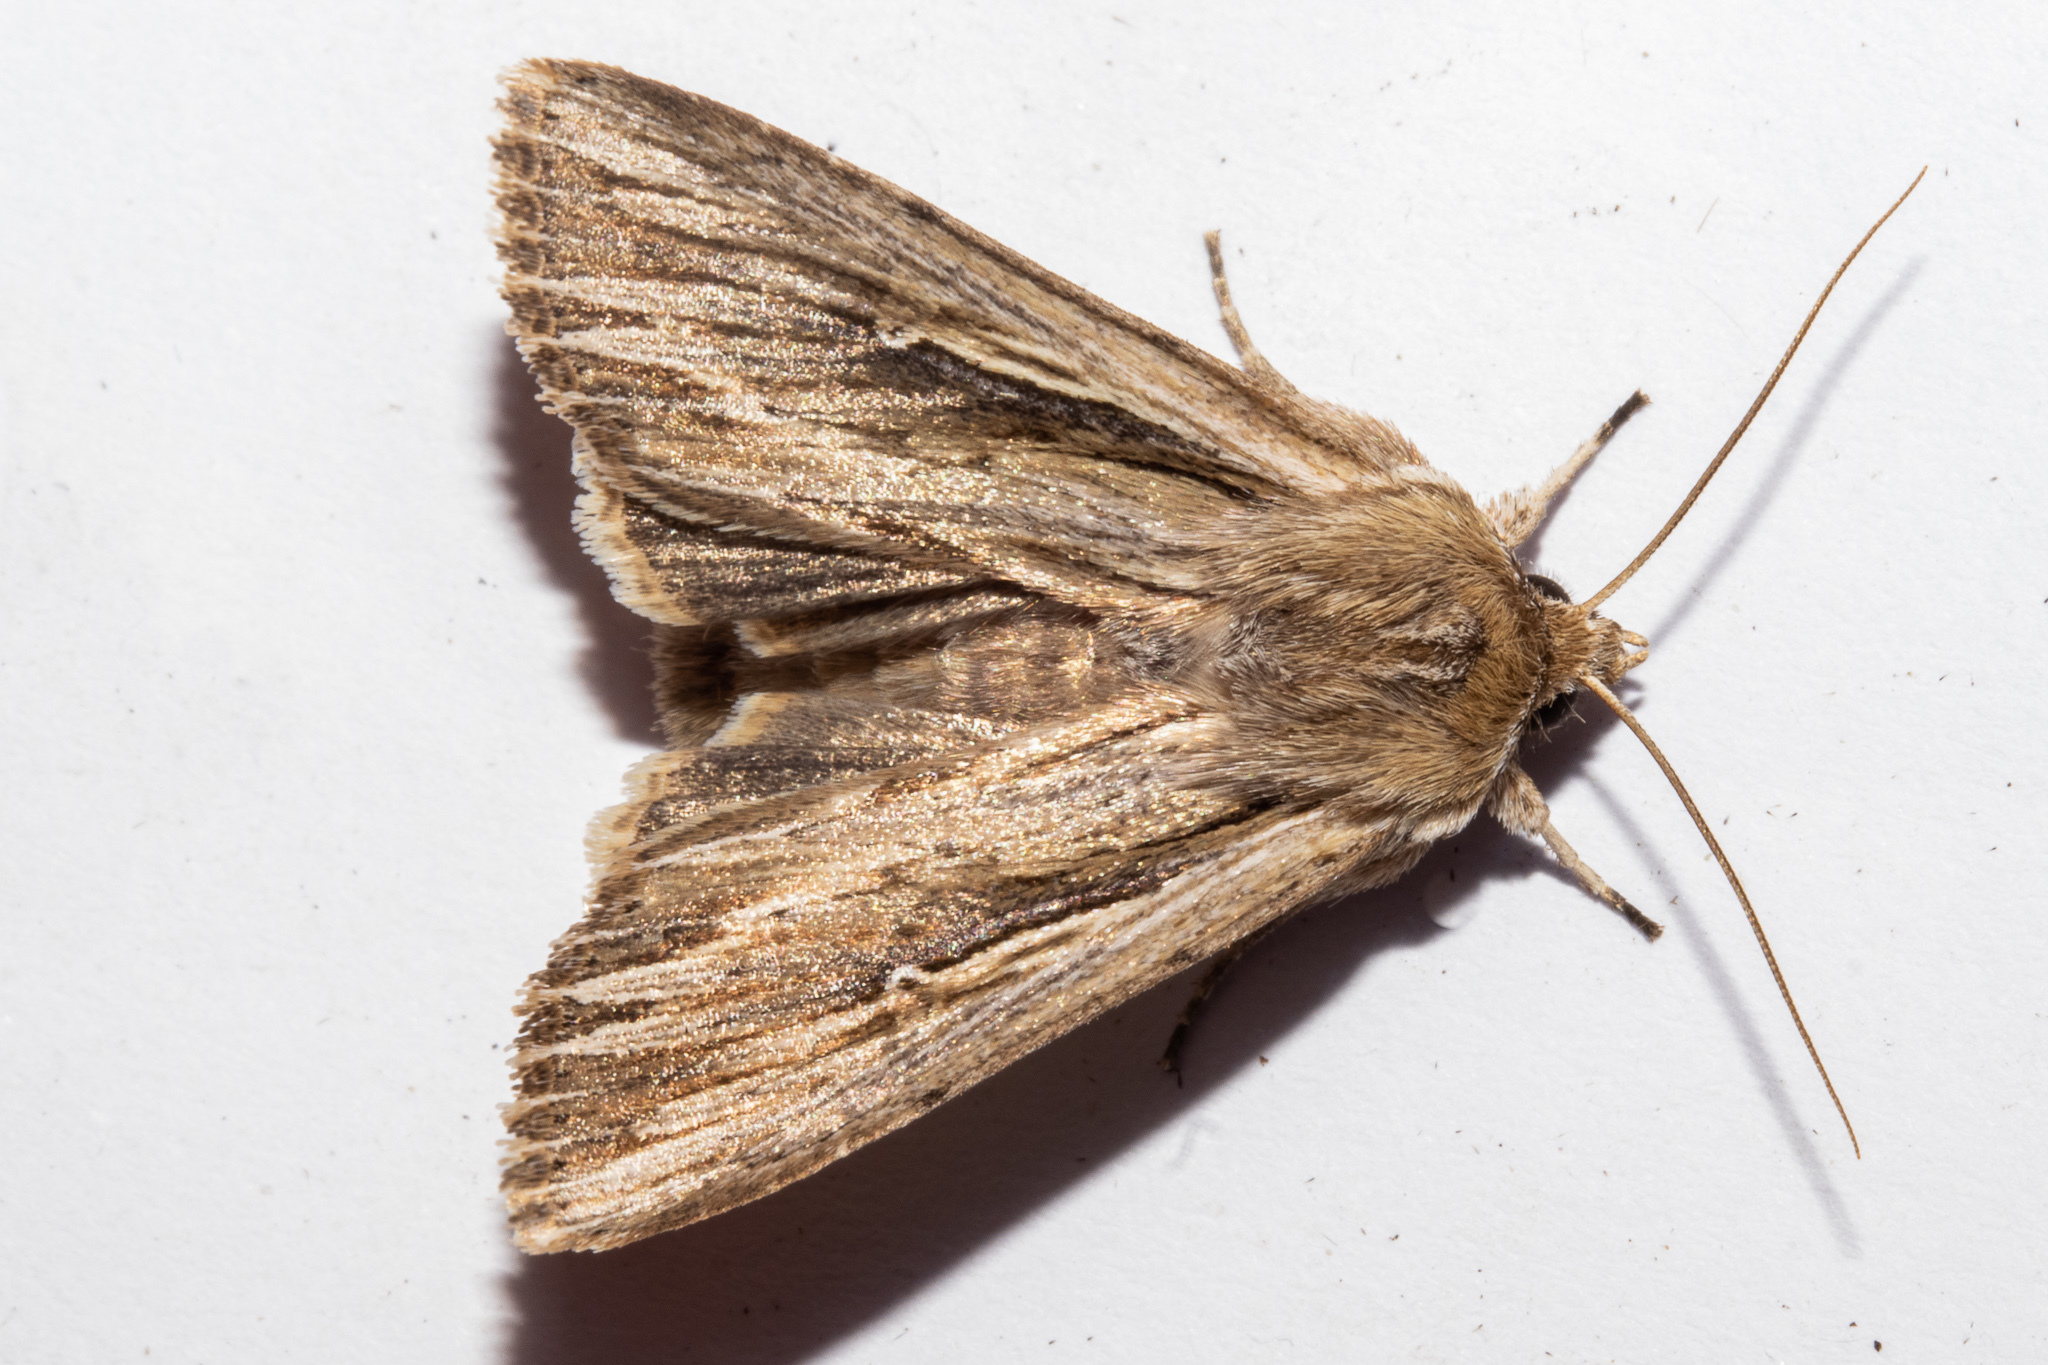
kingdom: Animalia
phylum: Arthropoda
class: Insecta
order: Lepidoptera
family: Noctuidae
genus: Persectania
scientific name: Persectania aversa
